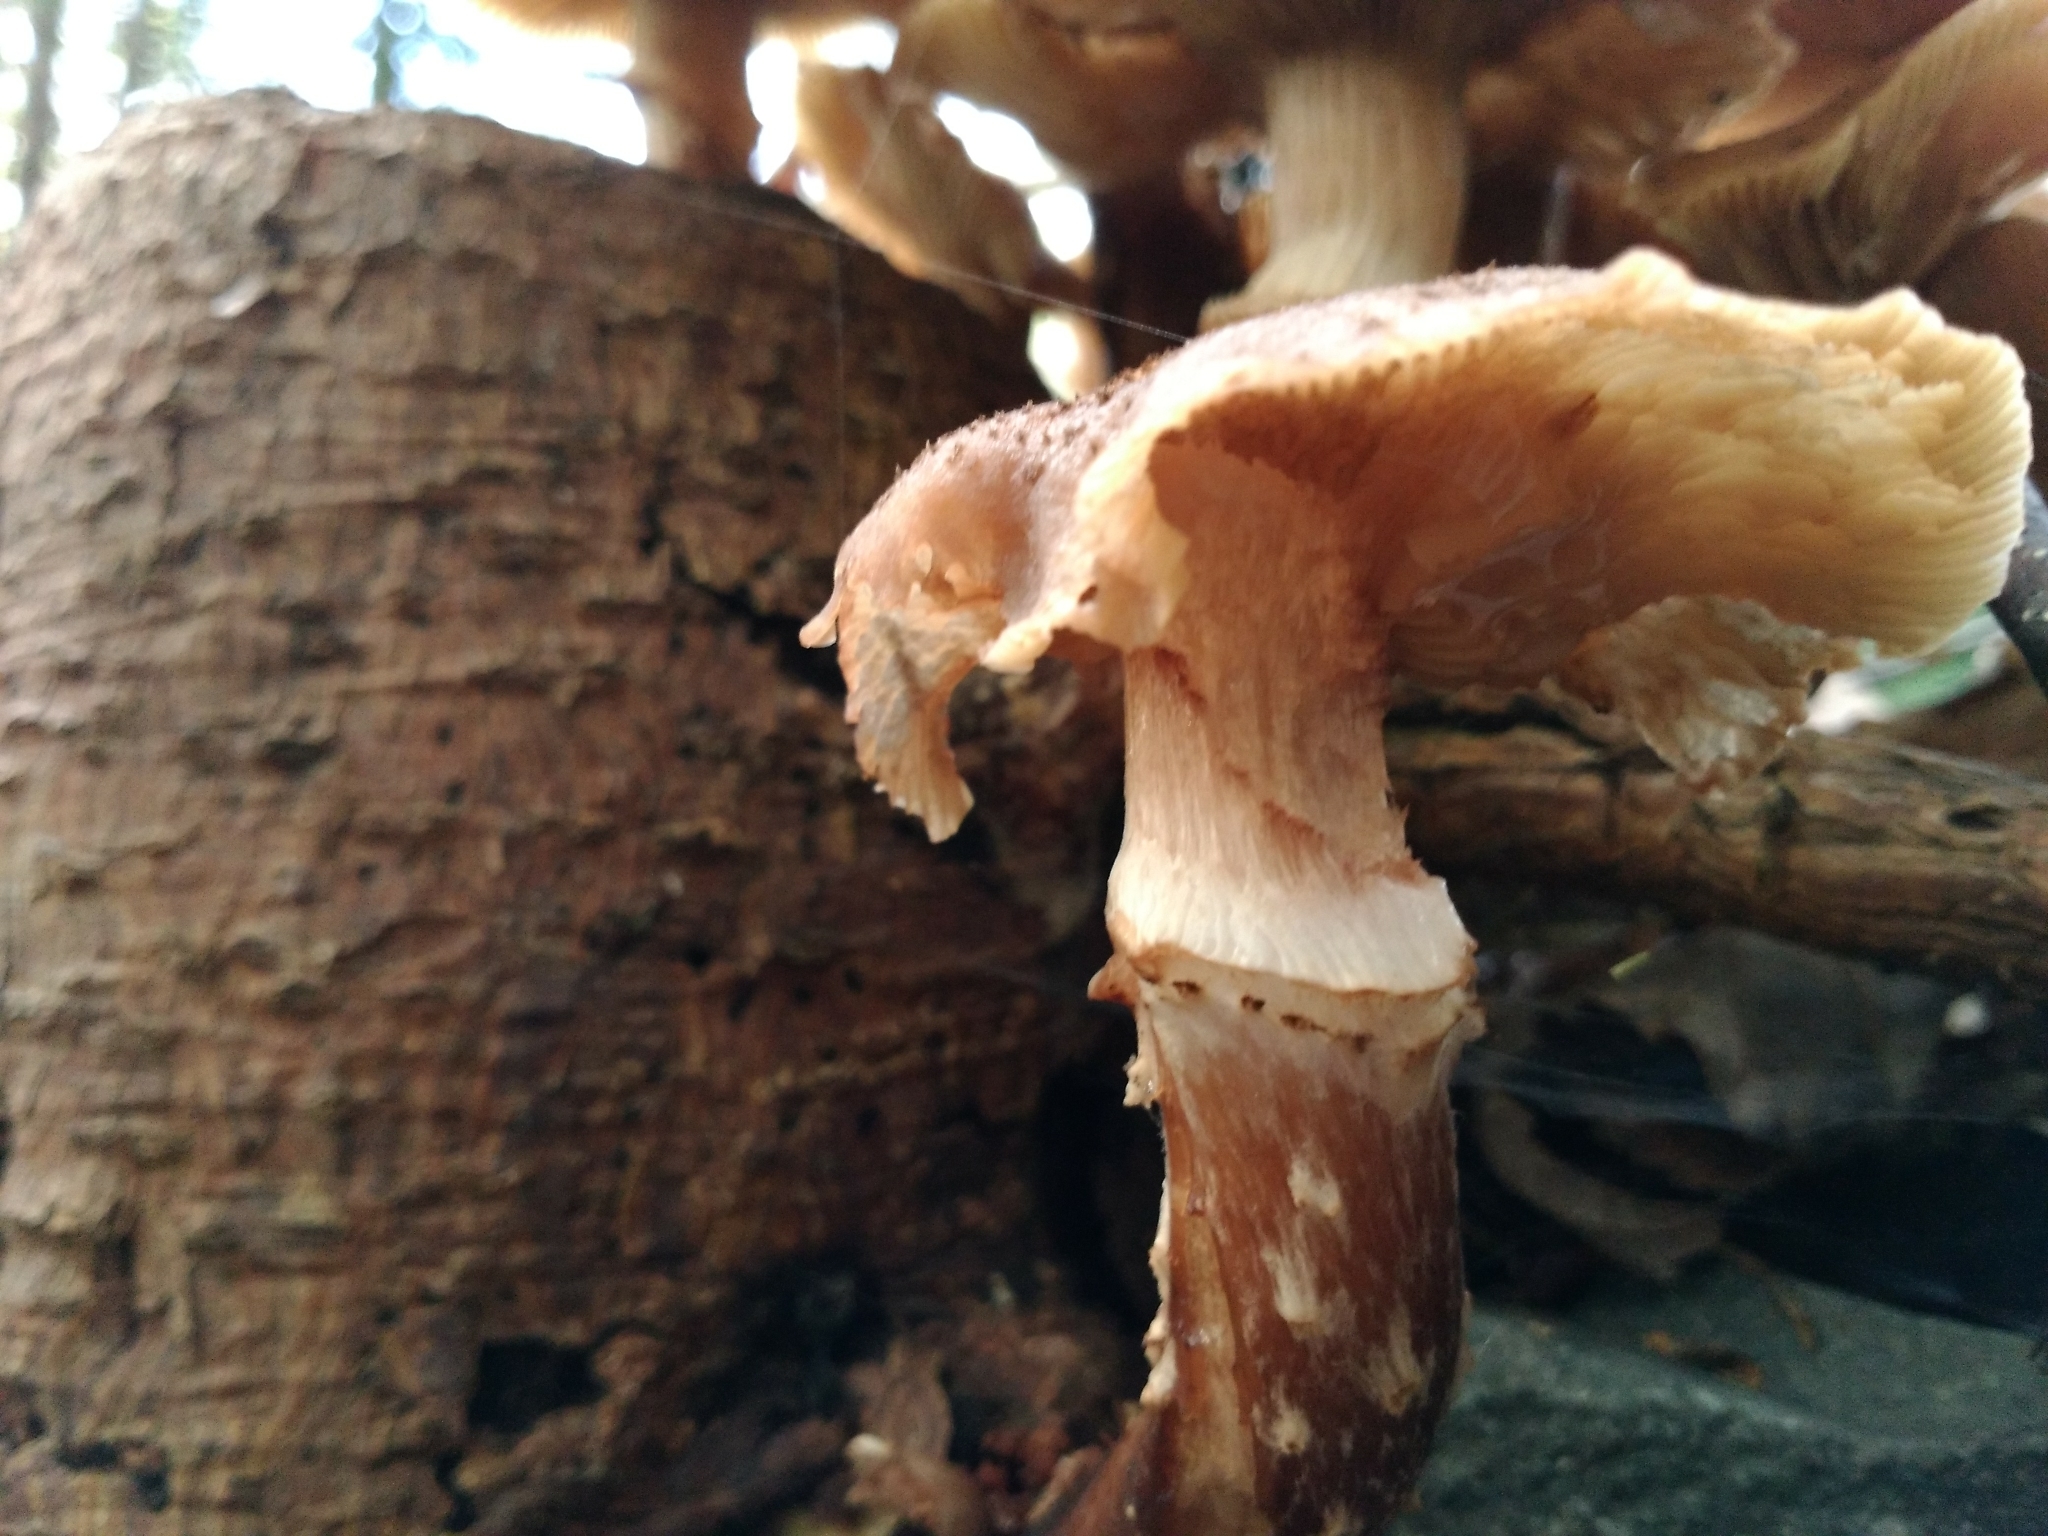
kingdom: Fungi
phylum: Basidiomycota
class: Agaricomycetes
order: Agaricales
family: Physalacriaceae
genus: Armillaria
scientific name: Armillaria mellea
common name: Honey fungus
